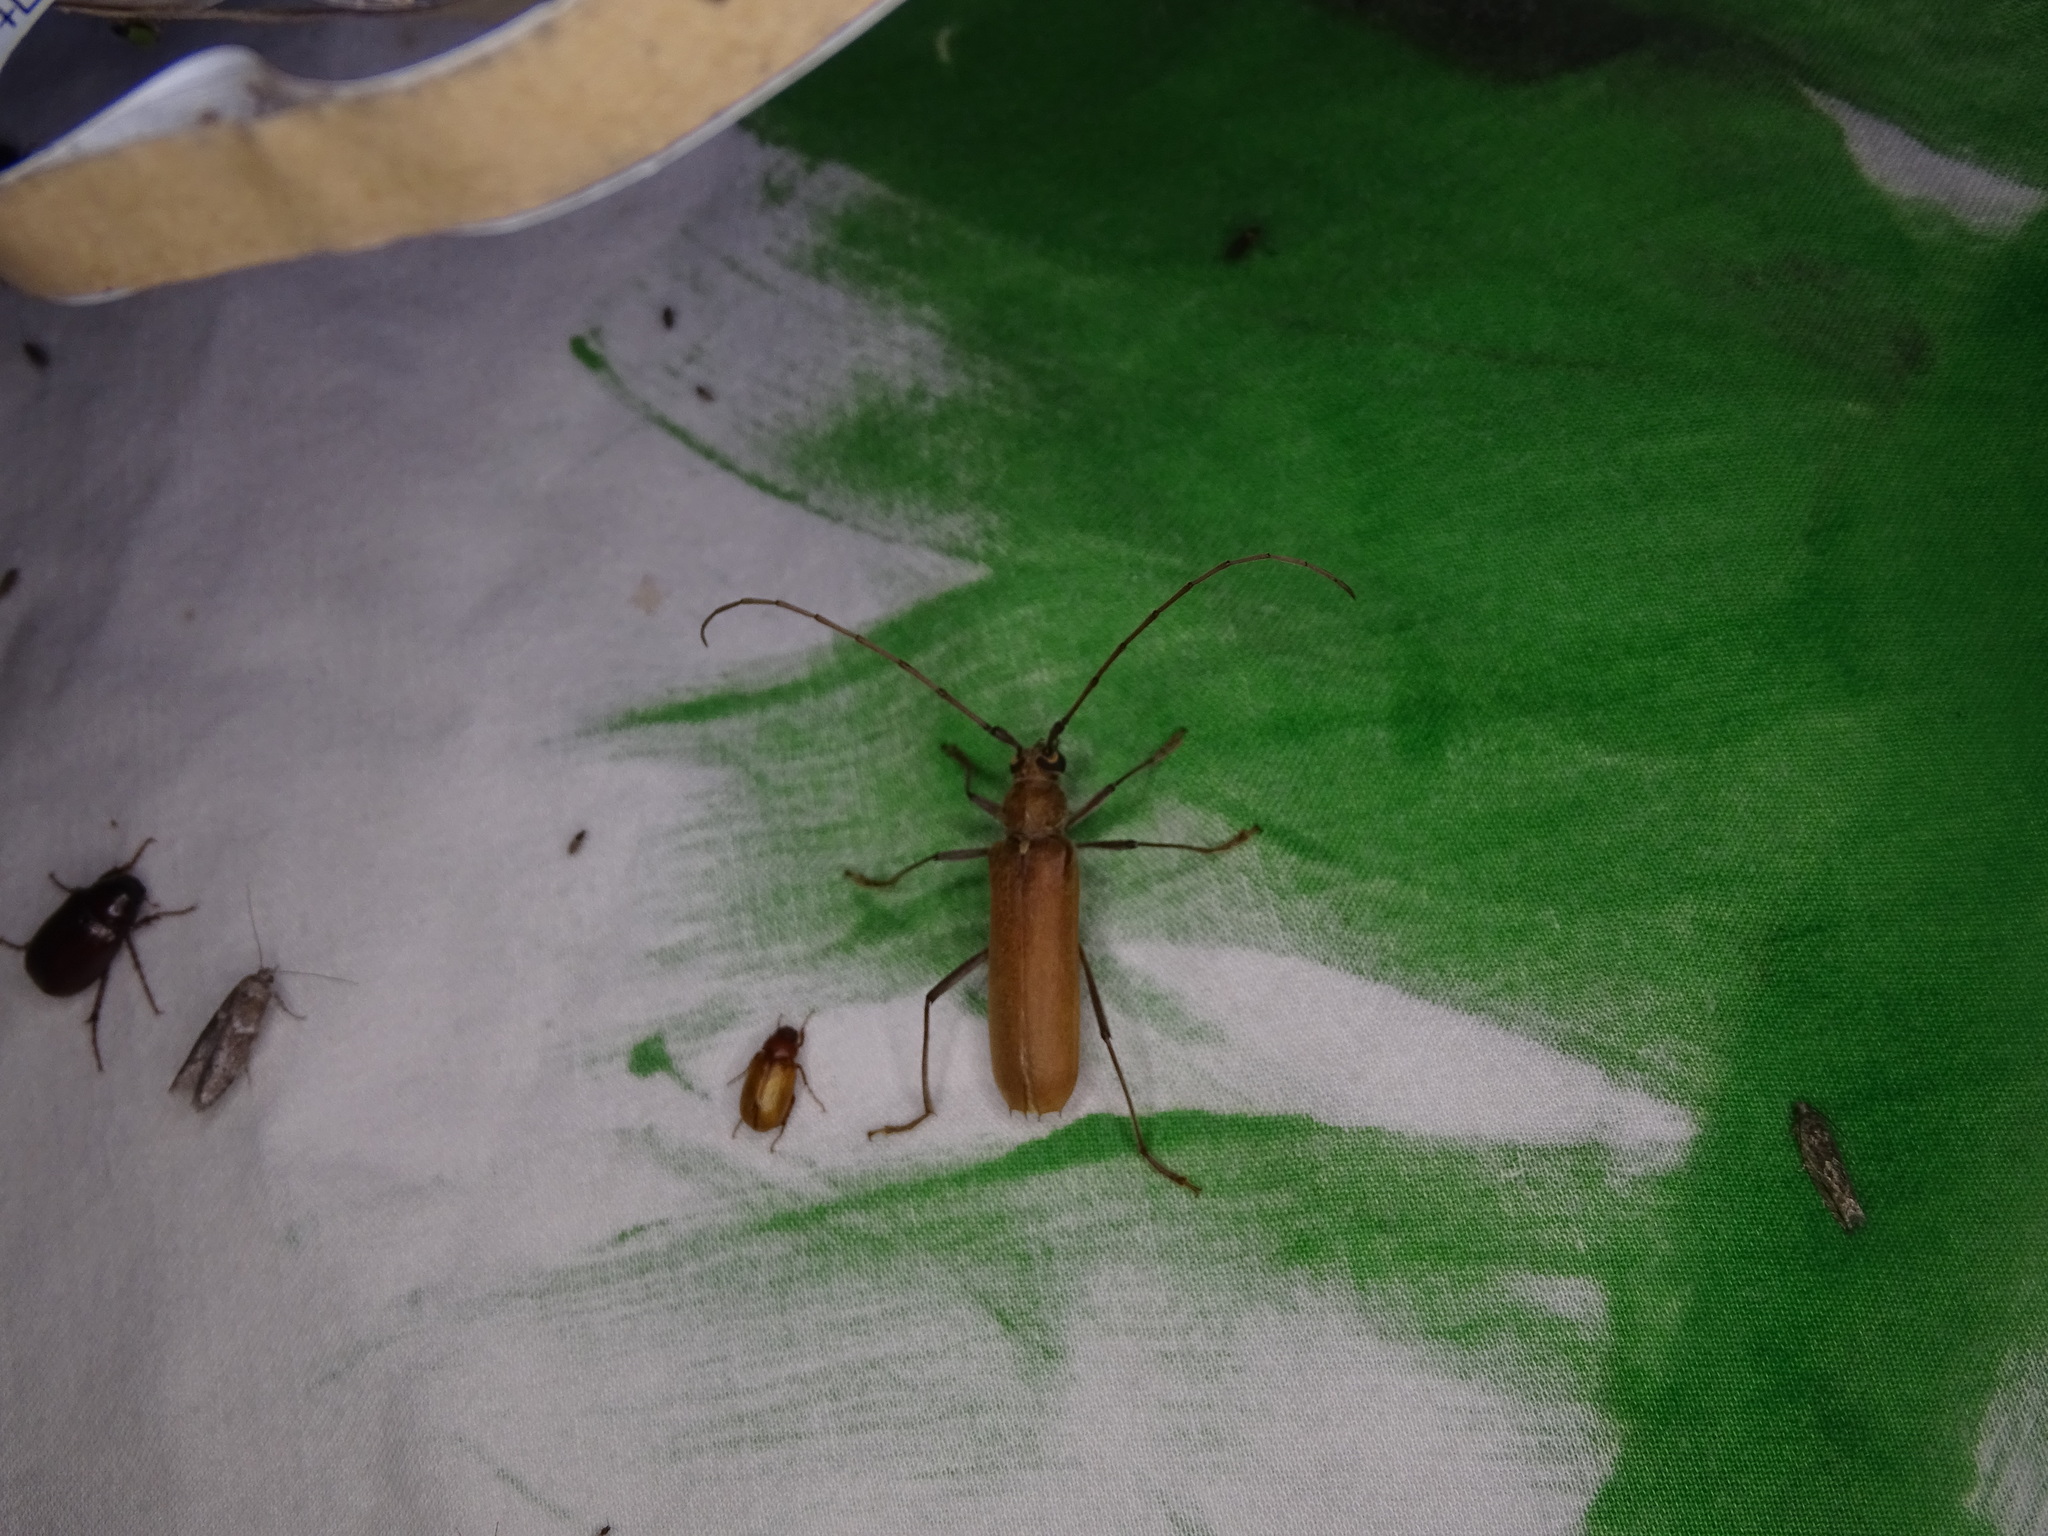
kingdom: Animalia
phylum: Arthropoda
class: Insecta
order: Coleoptera
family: Cerambycidae
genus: Knulliana
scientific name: Knulliana cincta
